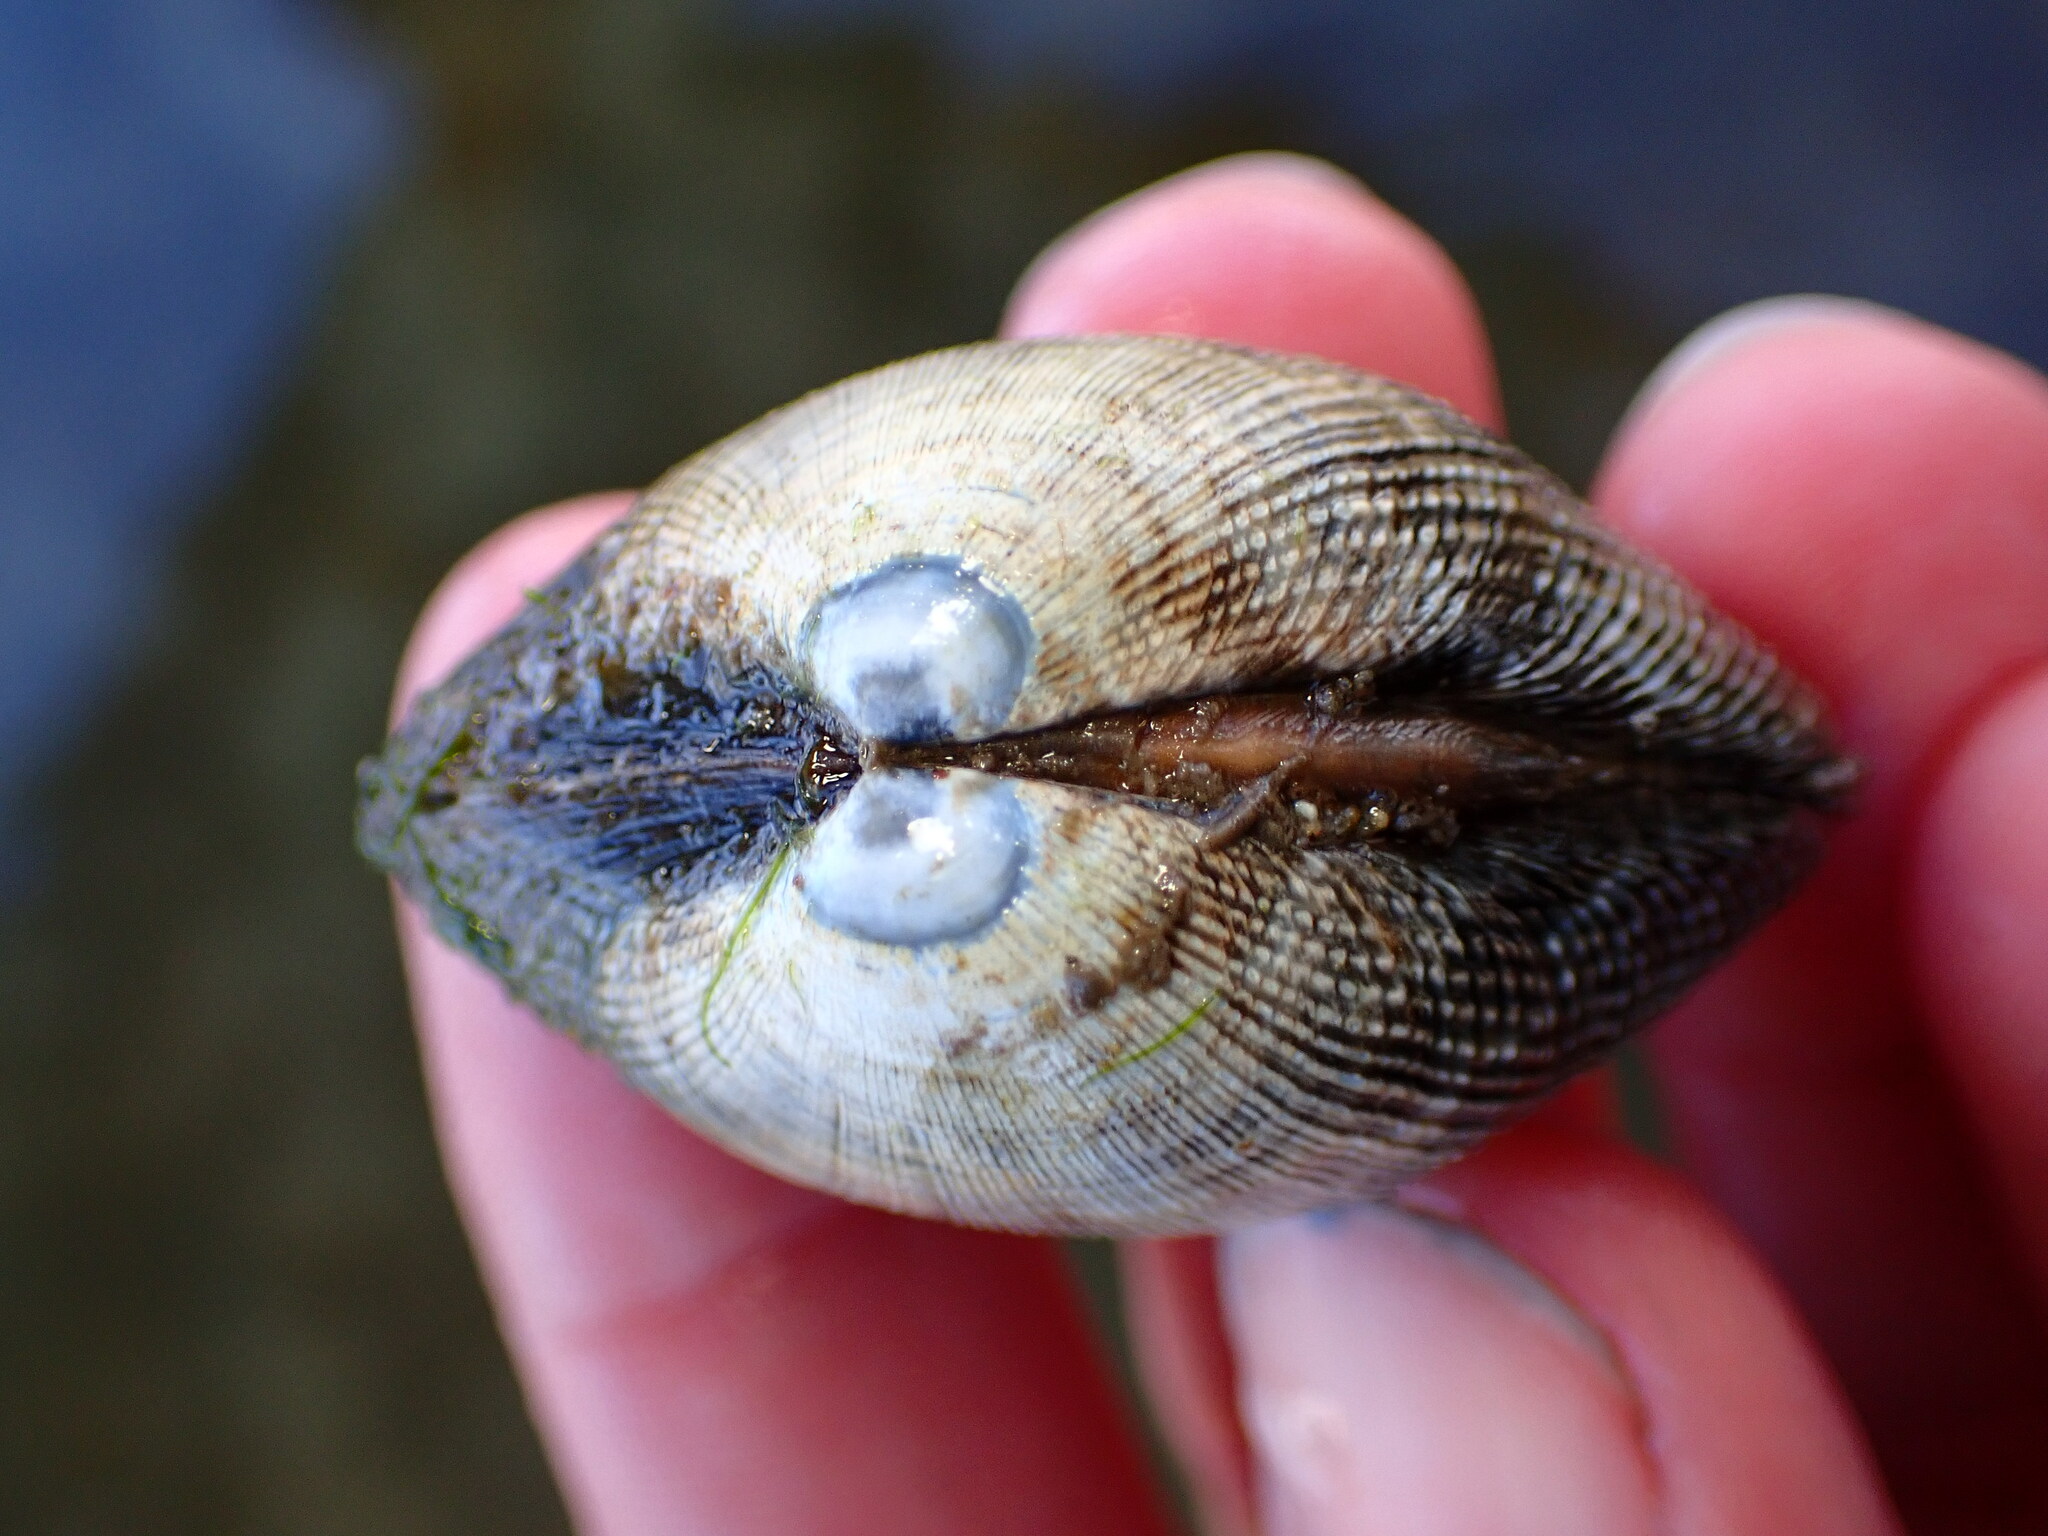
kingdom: Animalia
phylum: Mollusca
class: Bivalvia
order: Venerida
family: Veneridae
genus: Ruditapes
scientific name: Ruditapes philippinarum
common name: Manila clam
